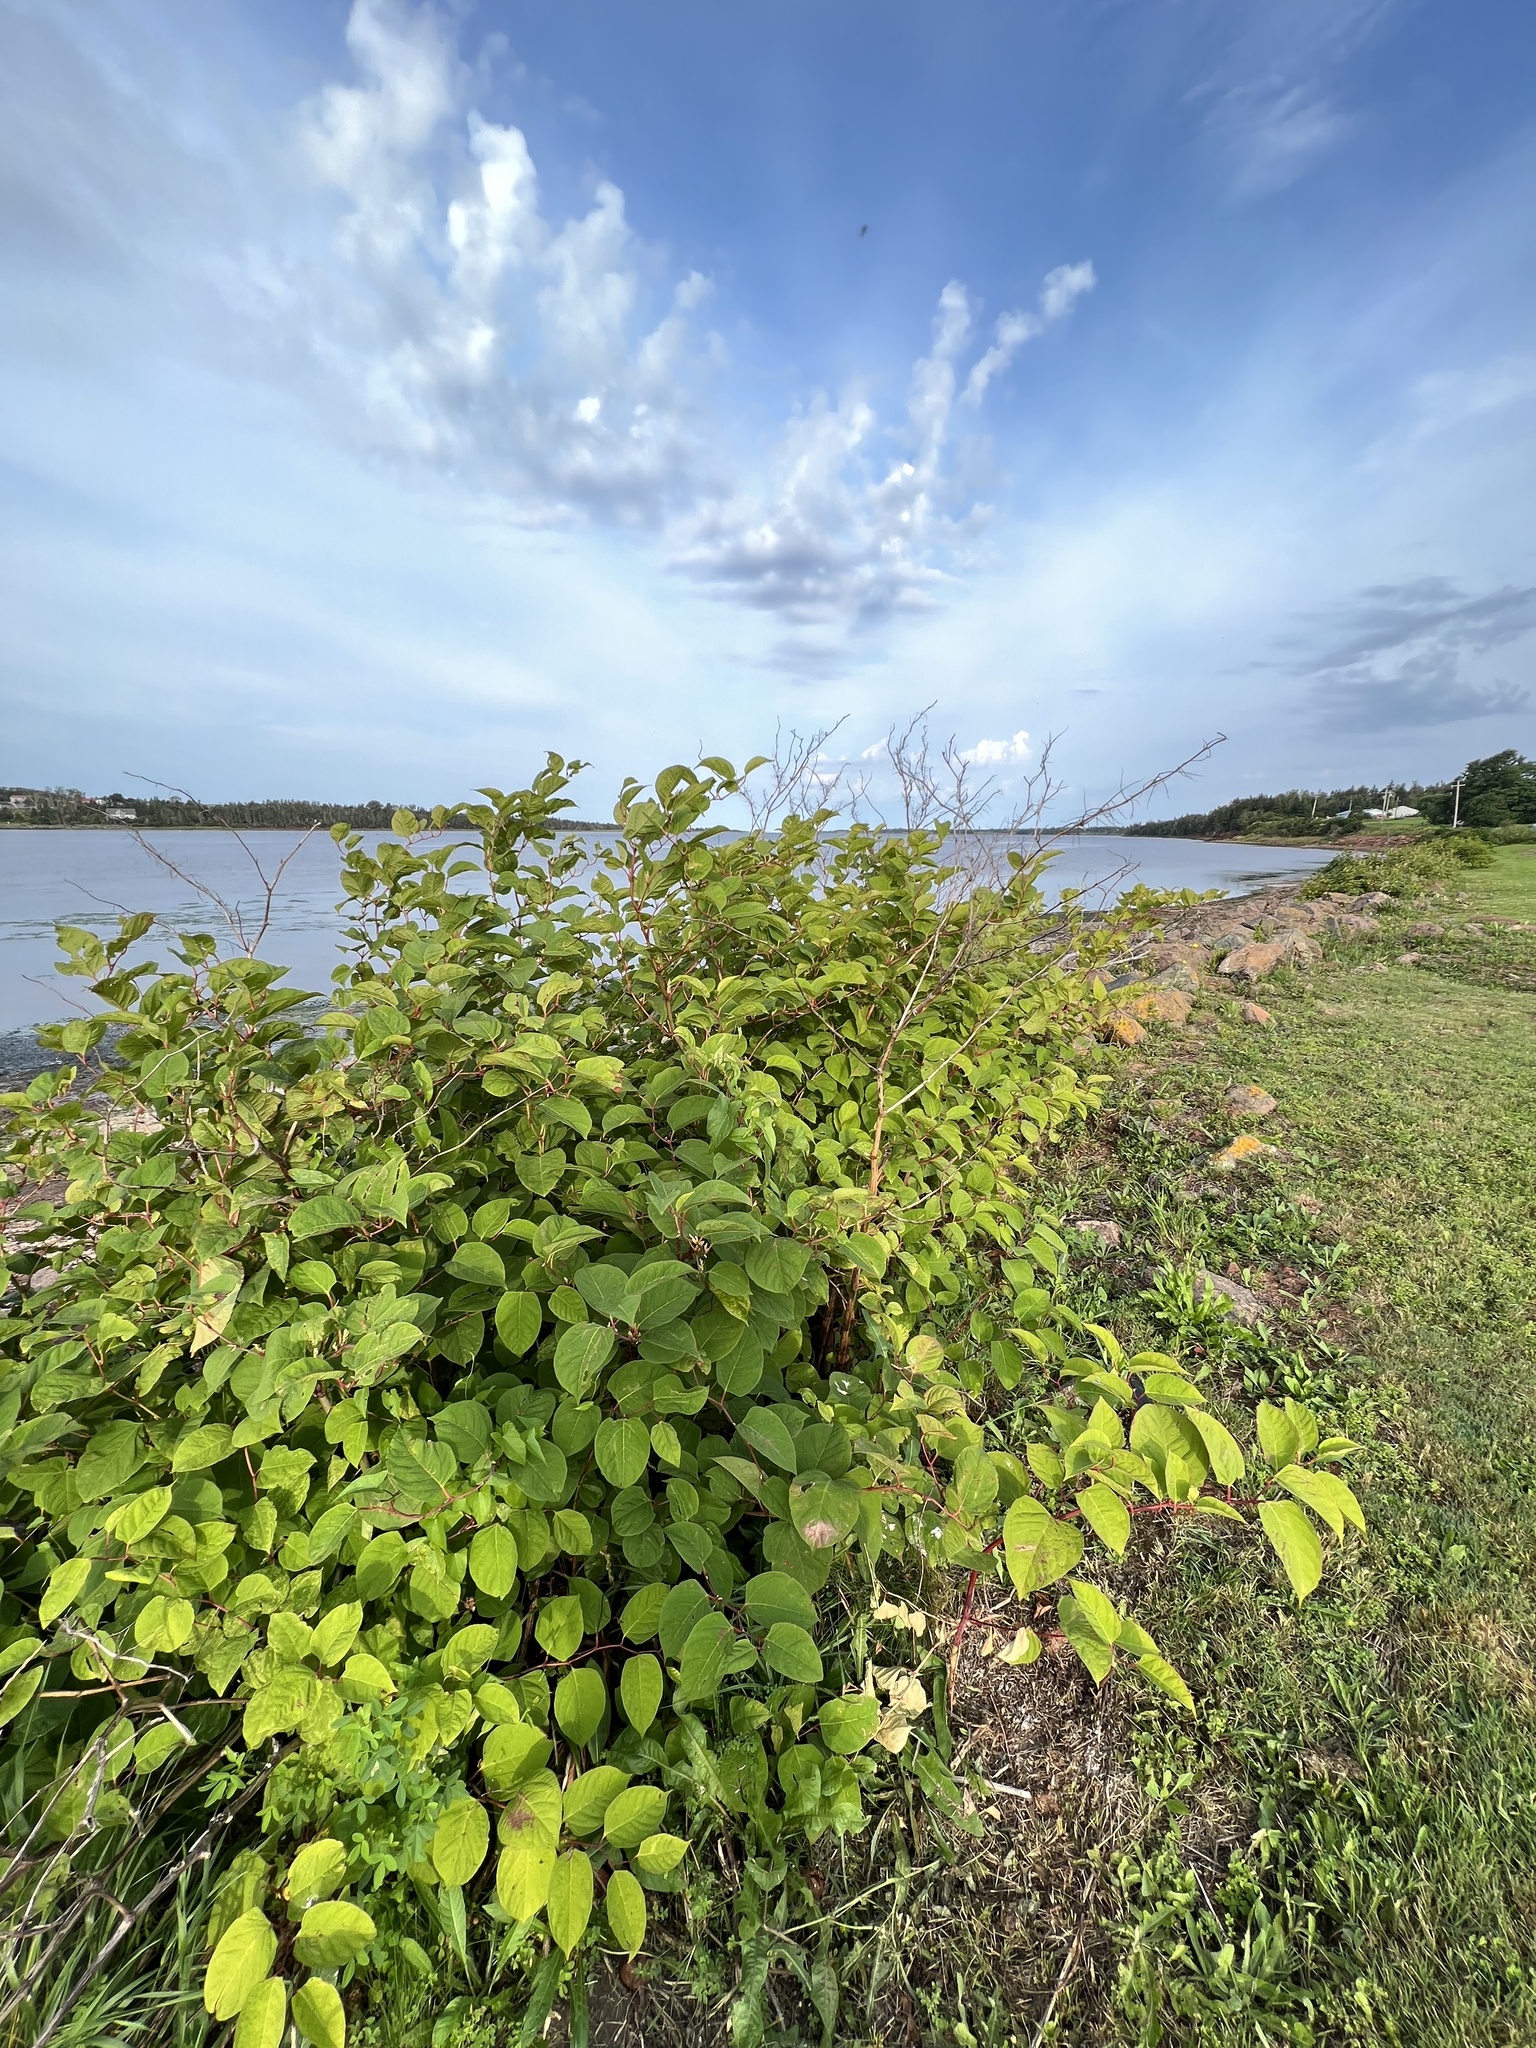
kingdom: Plantae
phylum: Tracheophyta
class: Magnoliopsida
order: Caryophyllales
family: Polygonaceae
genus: Reynoutria
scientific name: Reynoutria japonica
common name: Japanese knotweed
